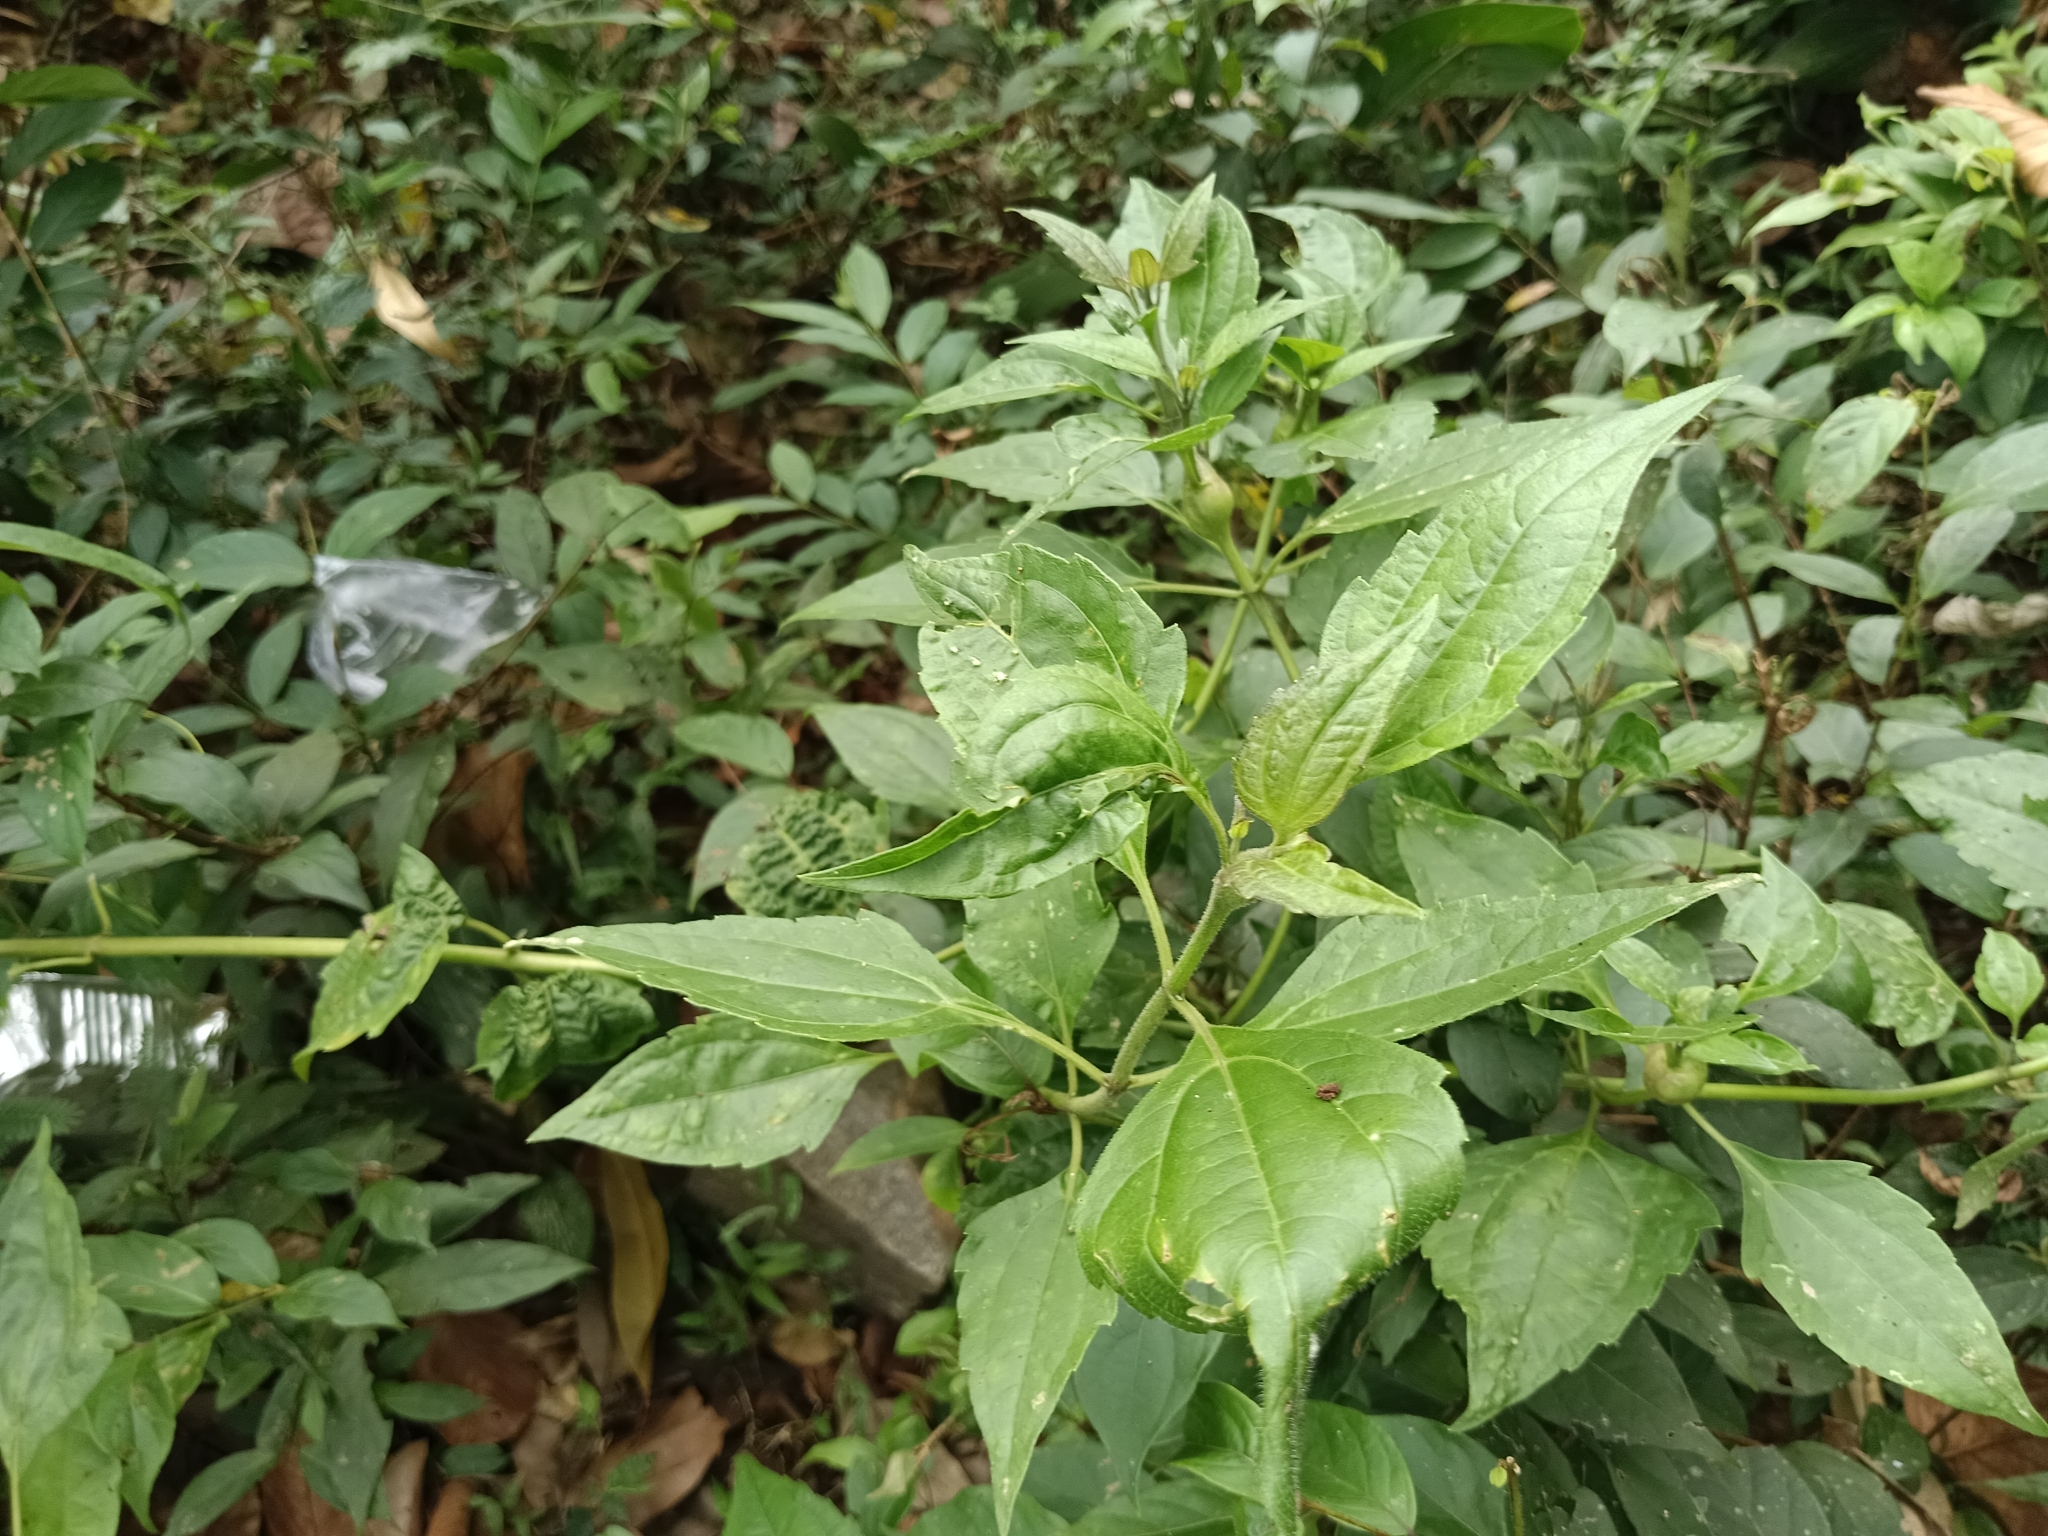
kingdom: Plantae
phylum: Tracheophyta
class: Magnoliopsida
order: Asterales
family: Asteraceae
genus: Chromolaena
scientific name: Chromolaena odorata
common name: Siamweed
